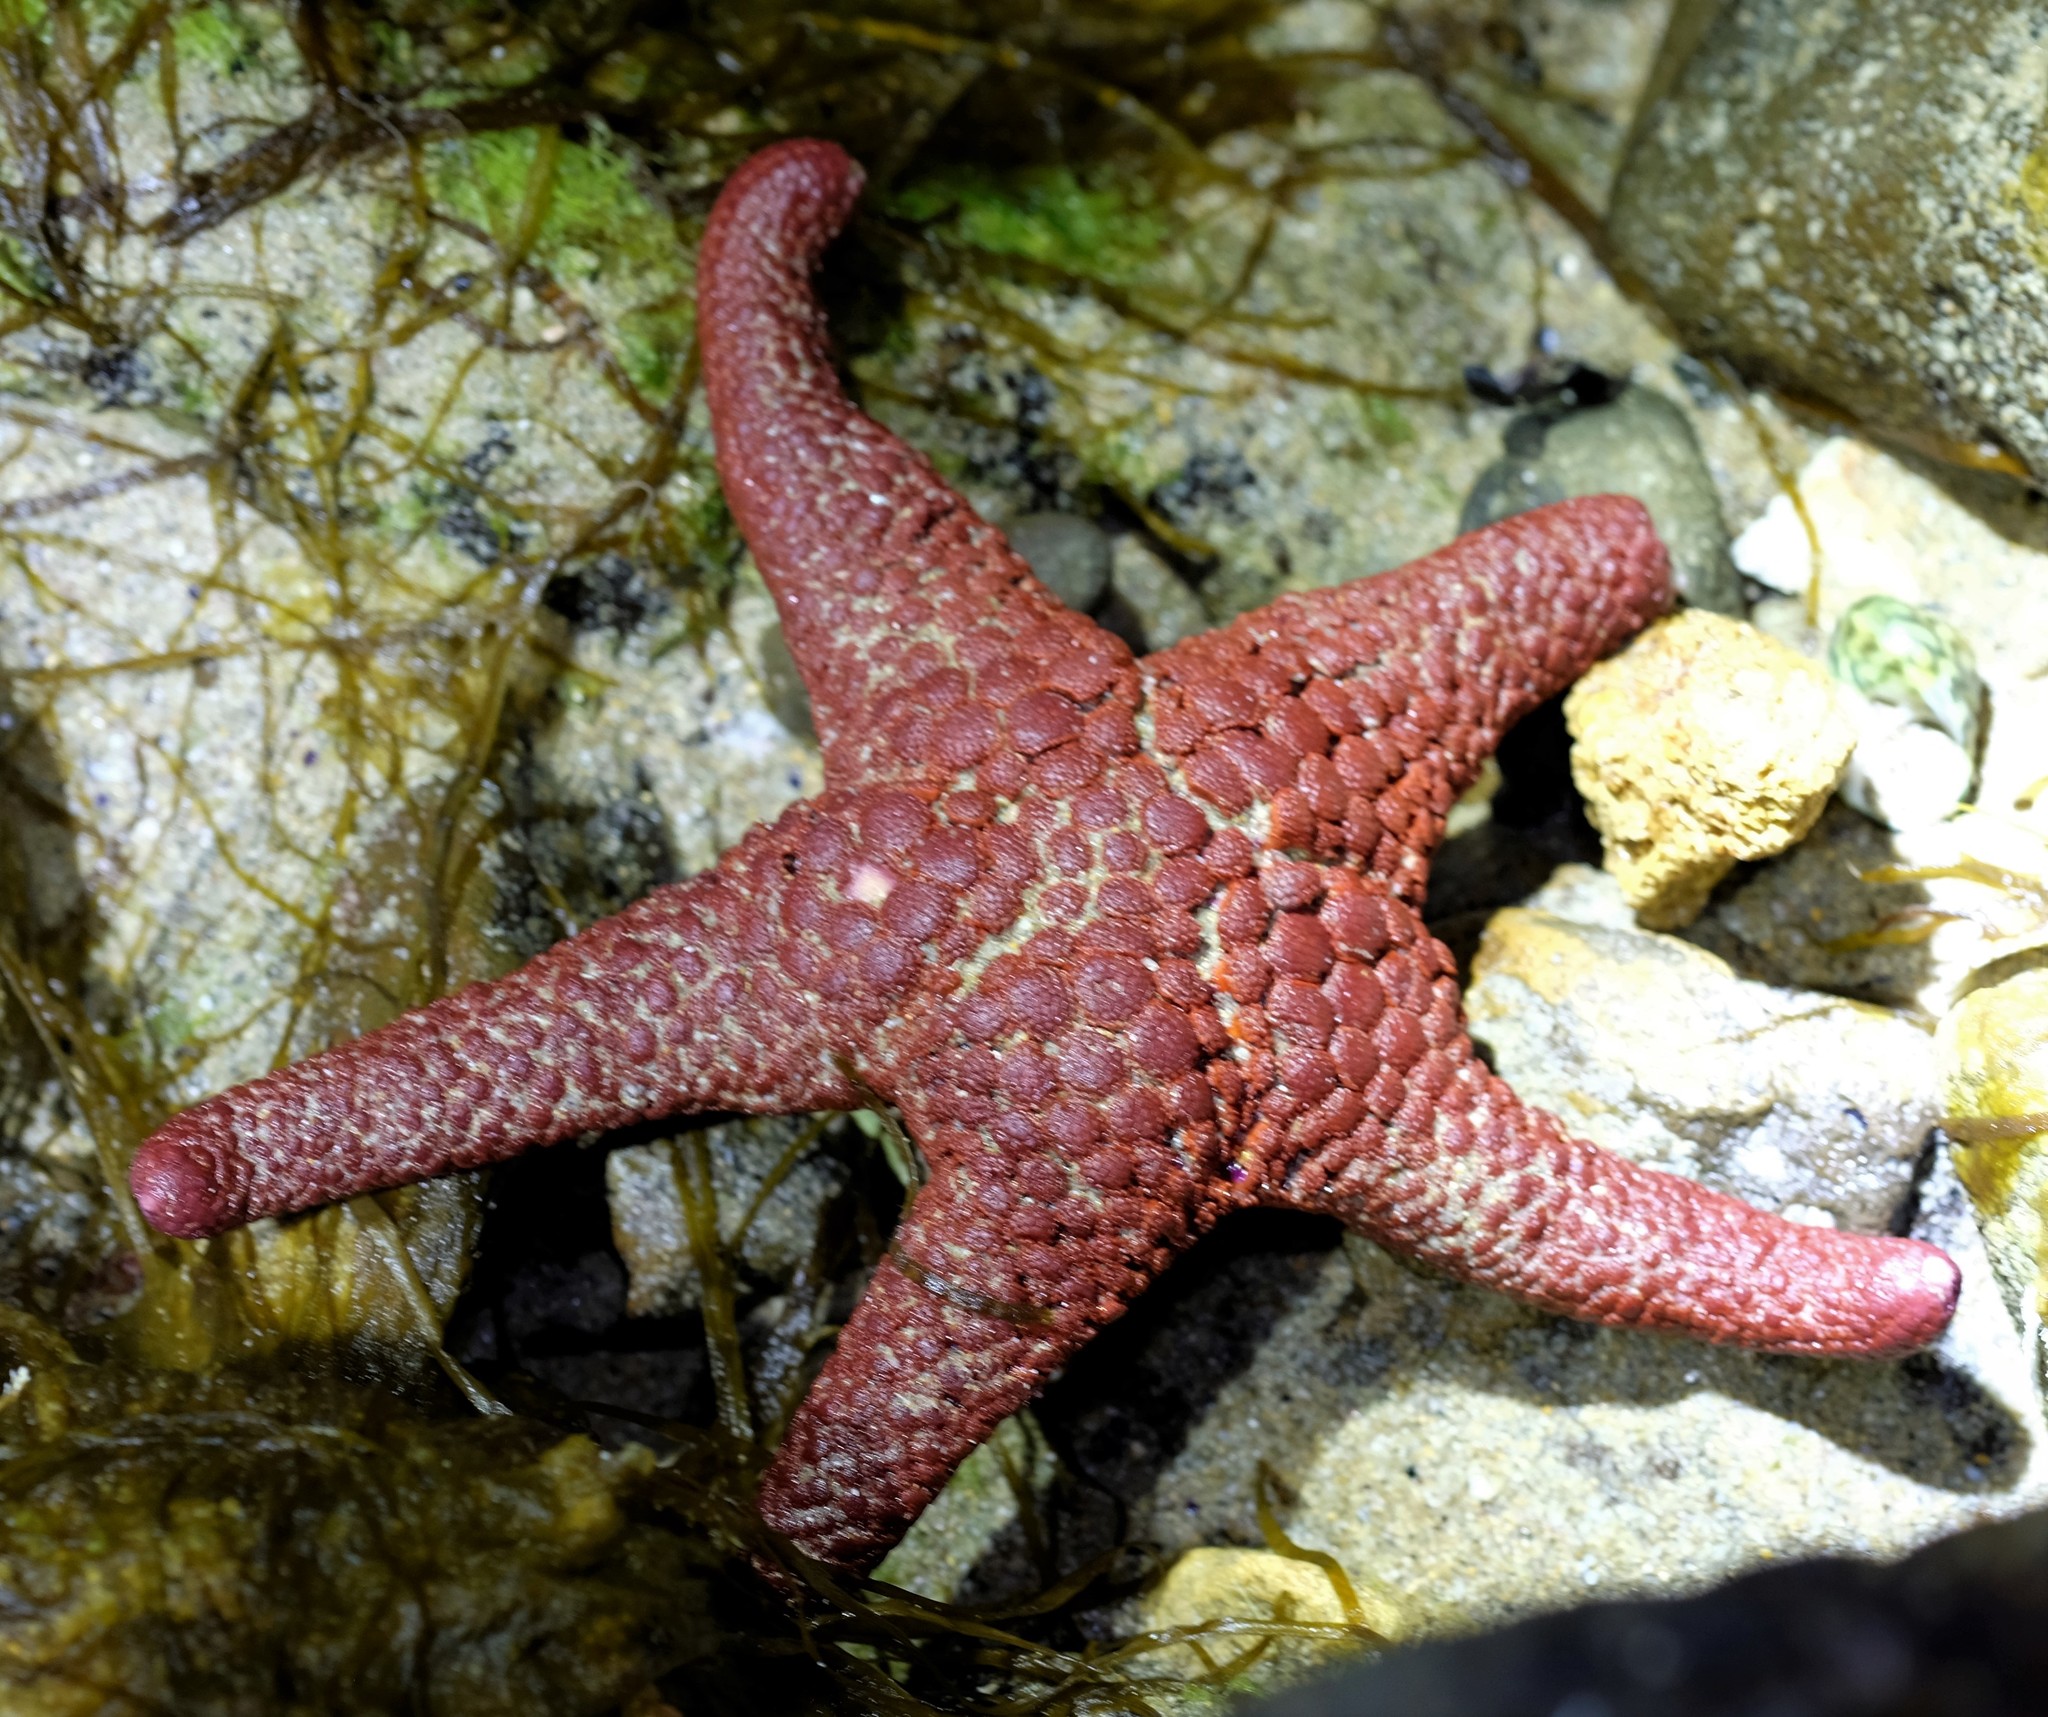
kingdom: Animalia
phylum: Echinodermata
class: Asteroidea
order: Valvatida
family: Goniasteridae
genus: Nectria
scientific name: Nectria ocellata
